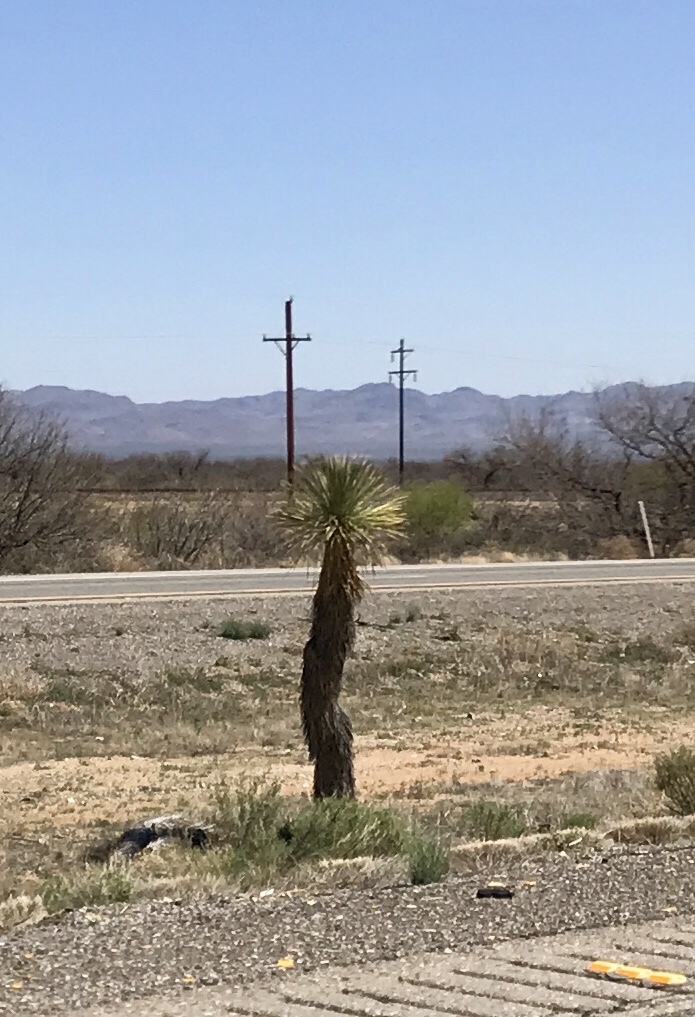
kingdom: Plantae
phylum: Tracheophyta
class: Liliopsida
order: Asparagales
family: Asparagaceae
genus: Yucca
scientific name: Yucca elata
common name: Palmella
